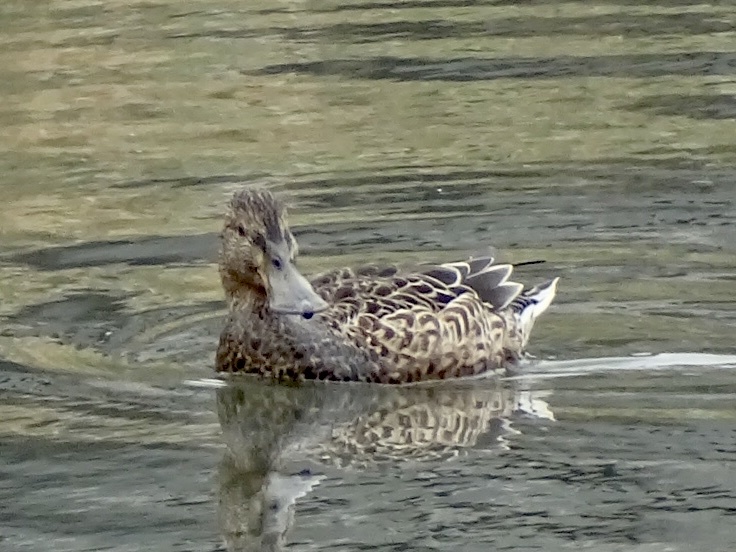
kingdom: Animalia
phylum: Chordata
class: Aves
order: Anseriformes
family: Anatidae
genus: Spatula
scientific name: Spatula clypeata
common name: Northern shoveler
